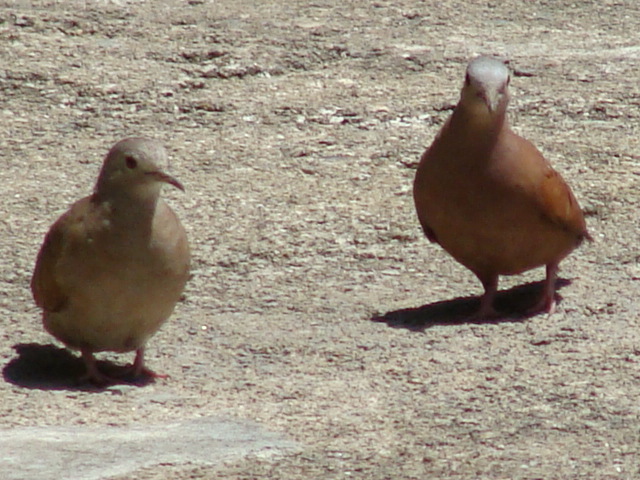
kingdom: Animalia
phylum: Chordata
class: Aves
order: Columbiformes
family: Columbidae
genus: Columbina
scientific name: Columbina talpacoti
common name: Ruddy ground dove
